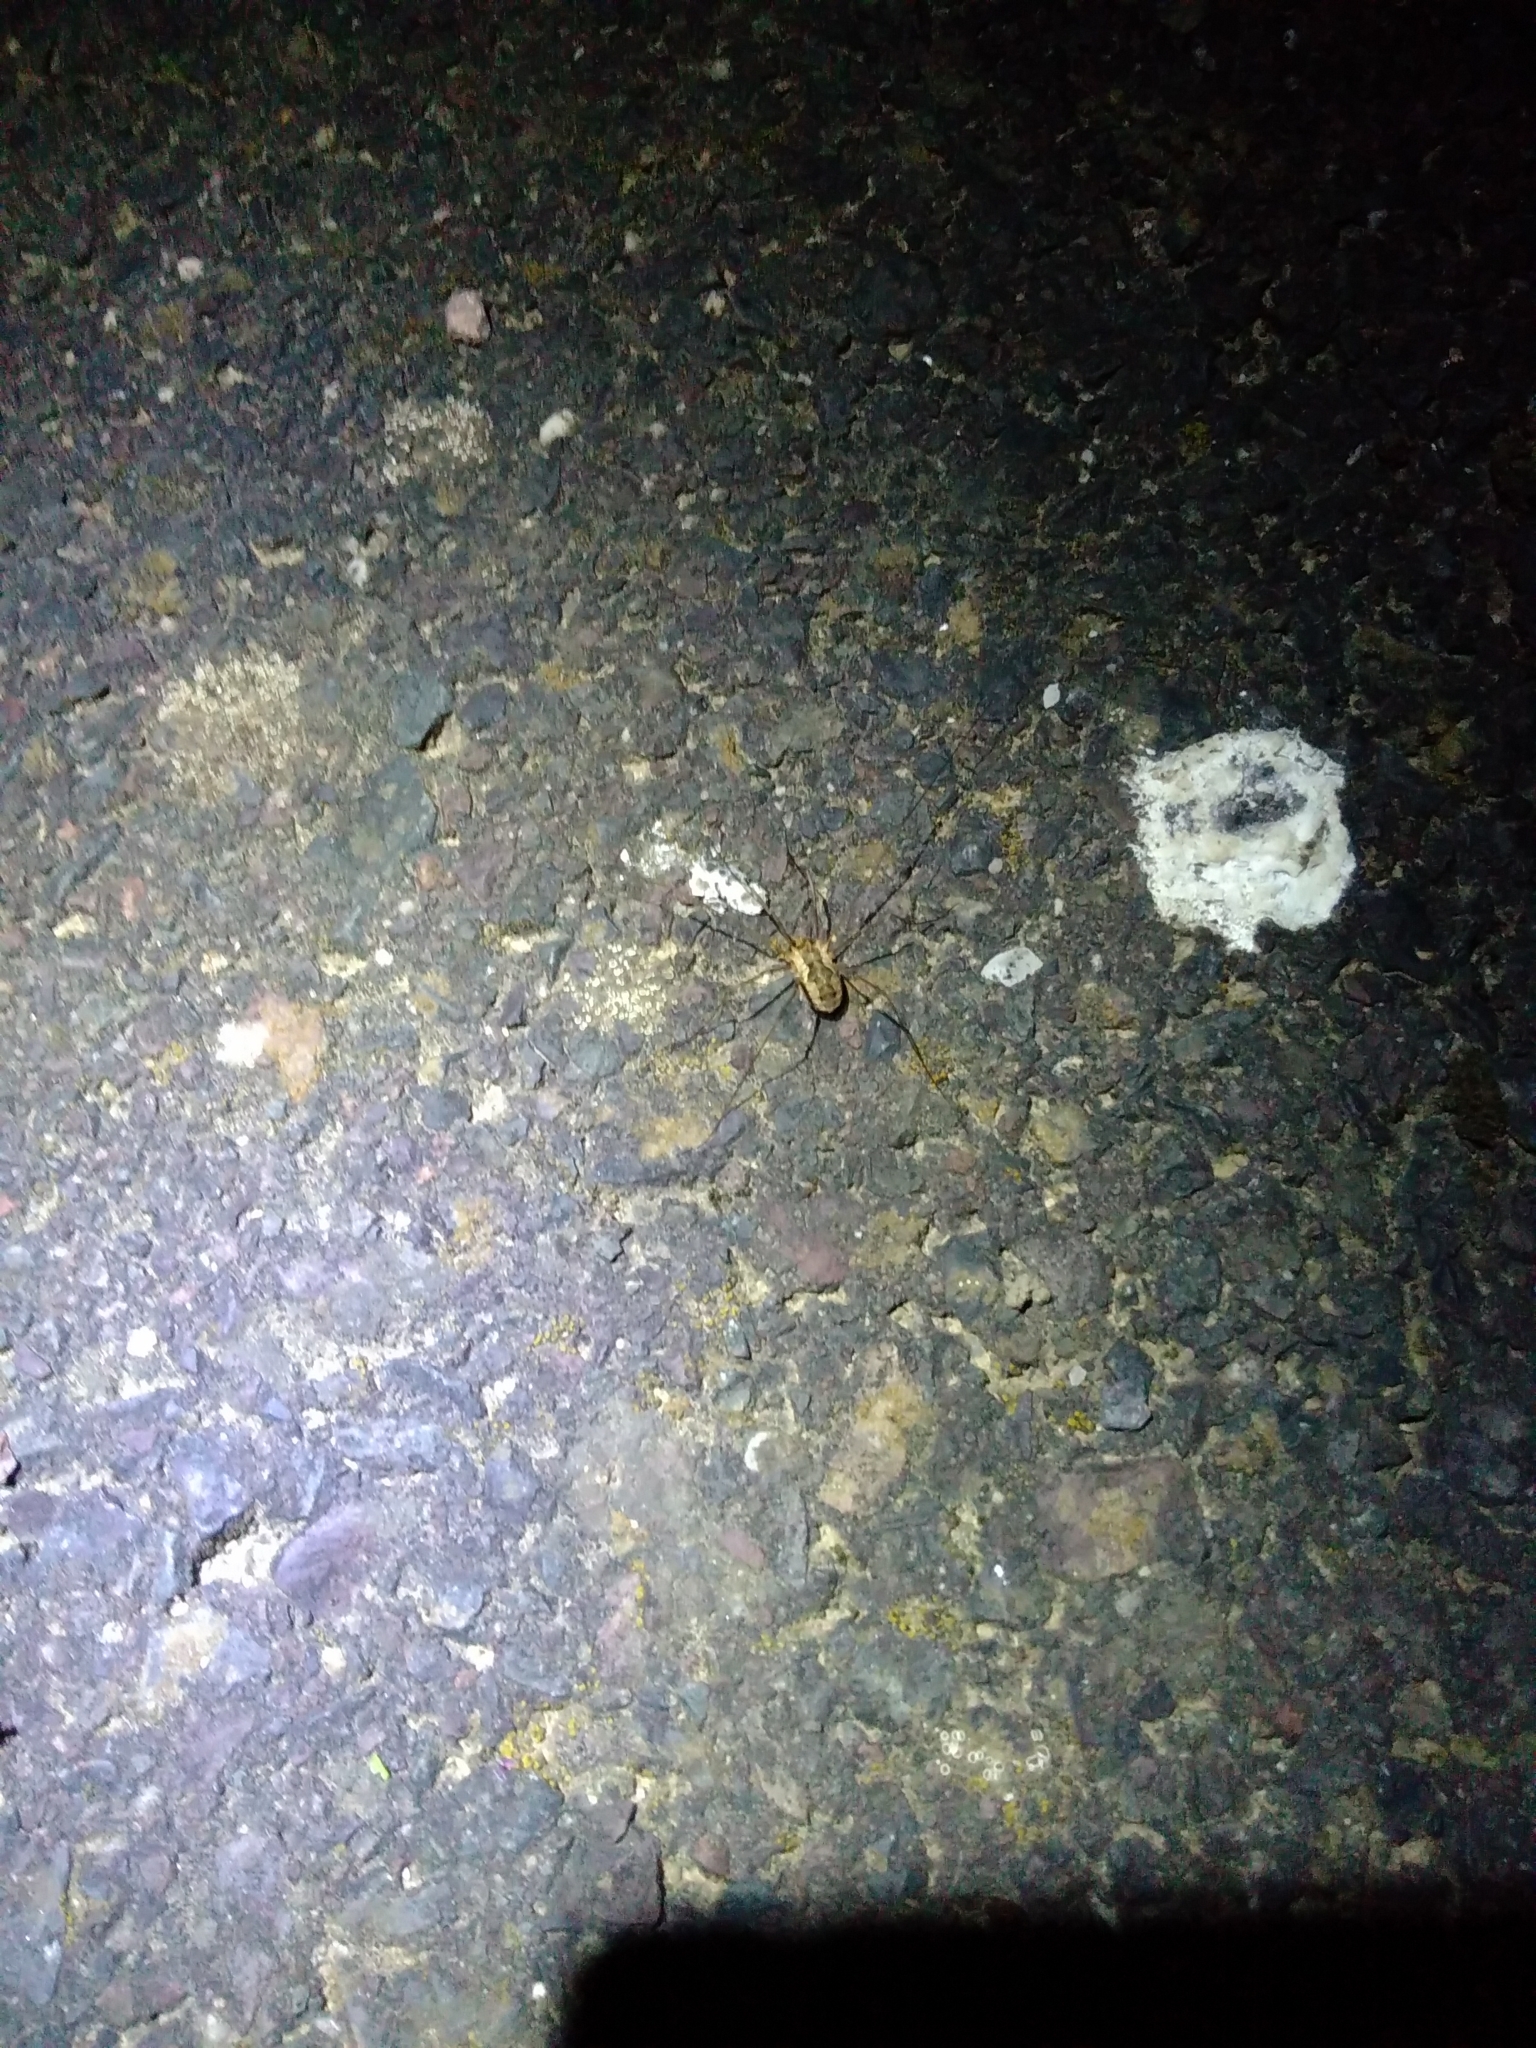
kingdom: Animalia
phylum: Arthropoda
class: Arachnida
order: Opiliones
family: Phalangiidae
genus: Phalangium
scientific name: Phalangium opilio
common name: Daddy longleg
